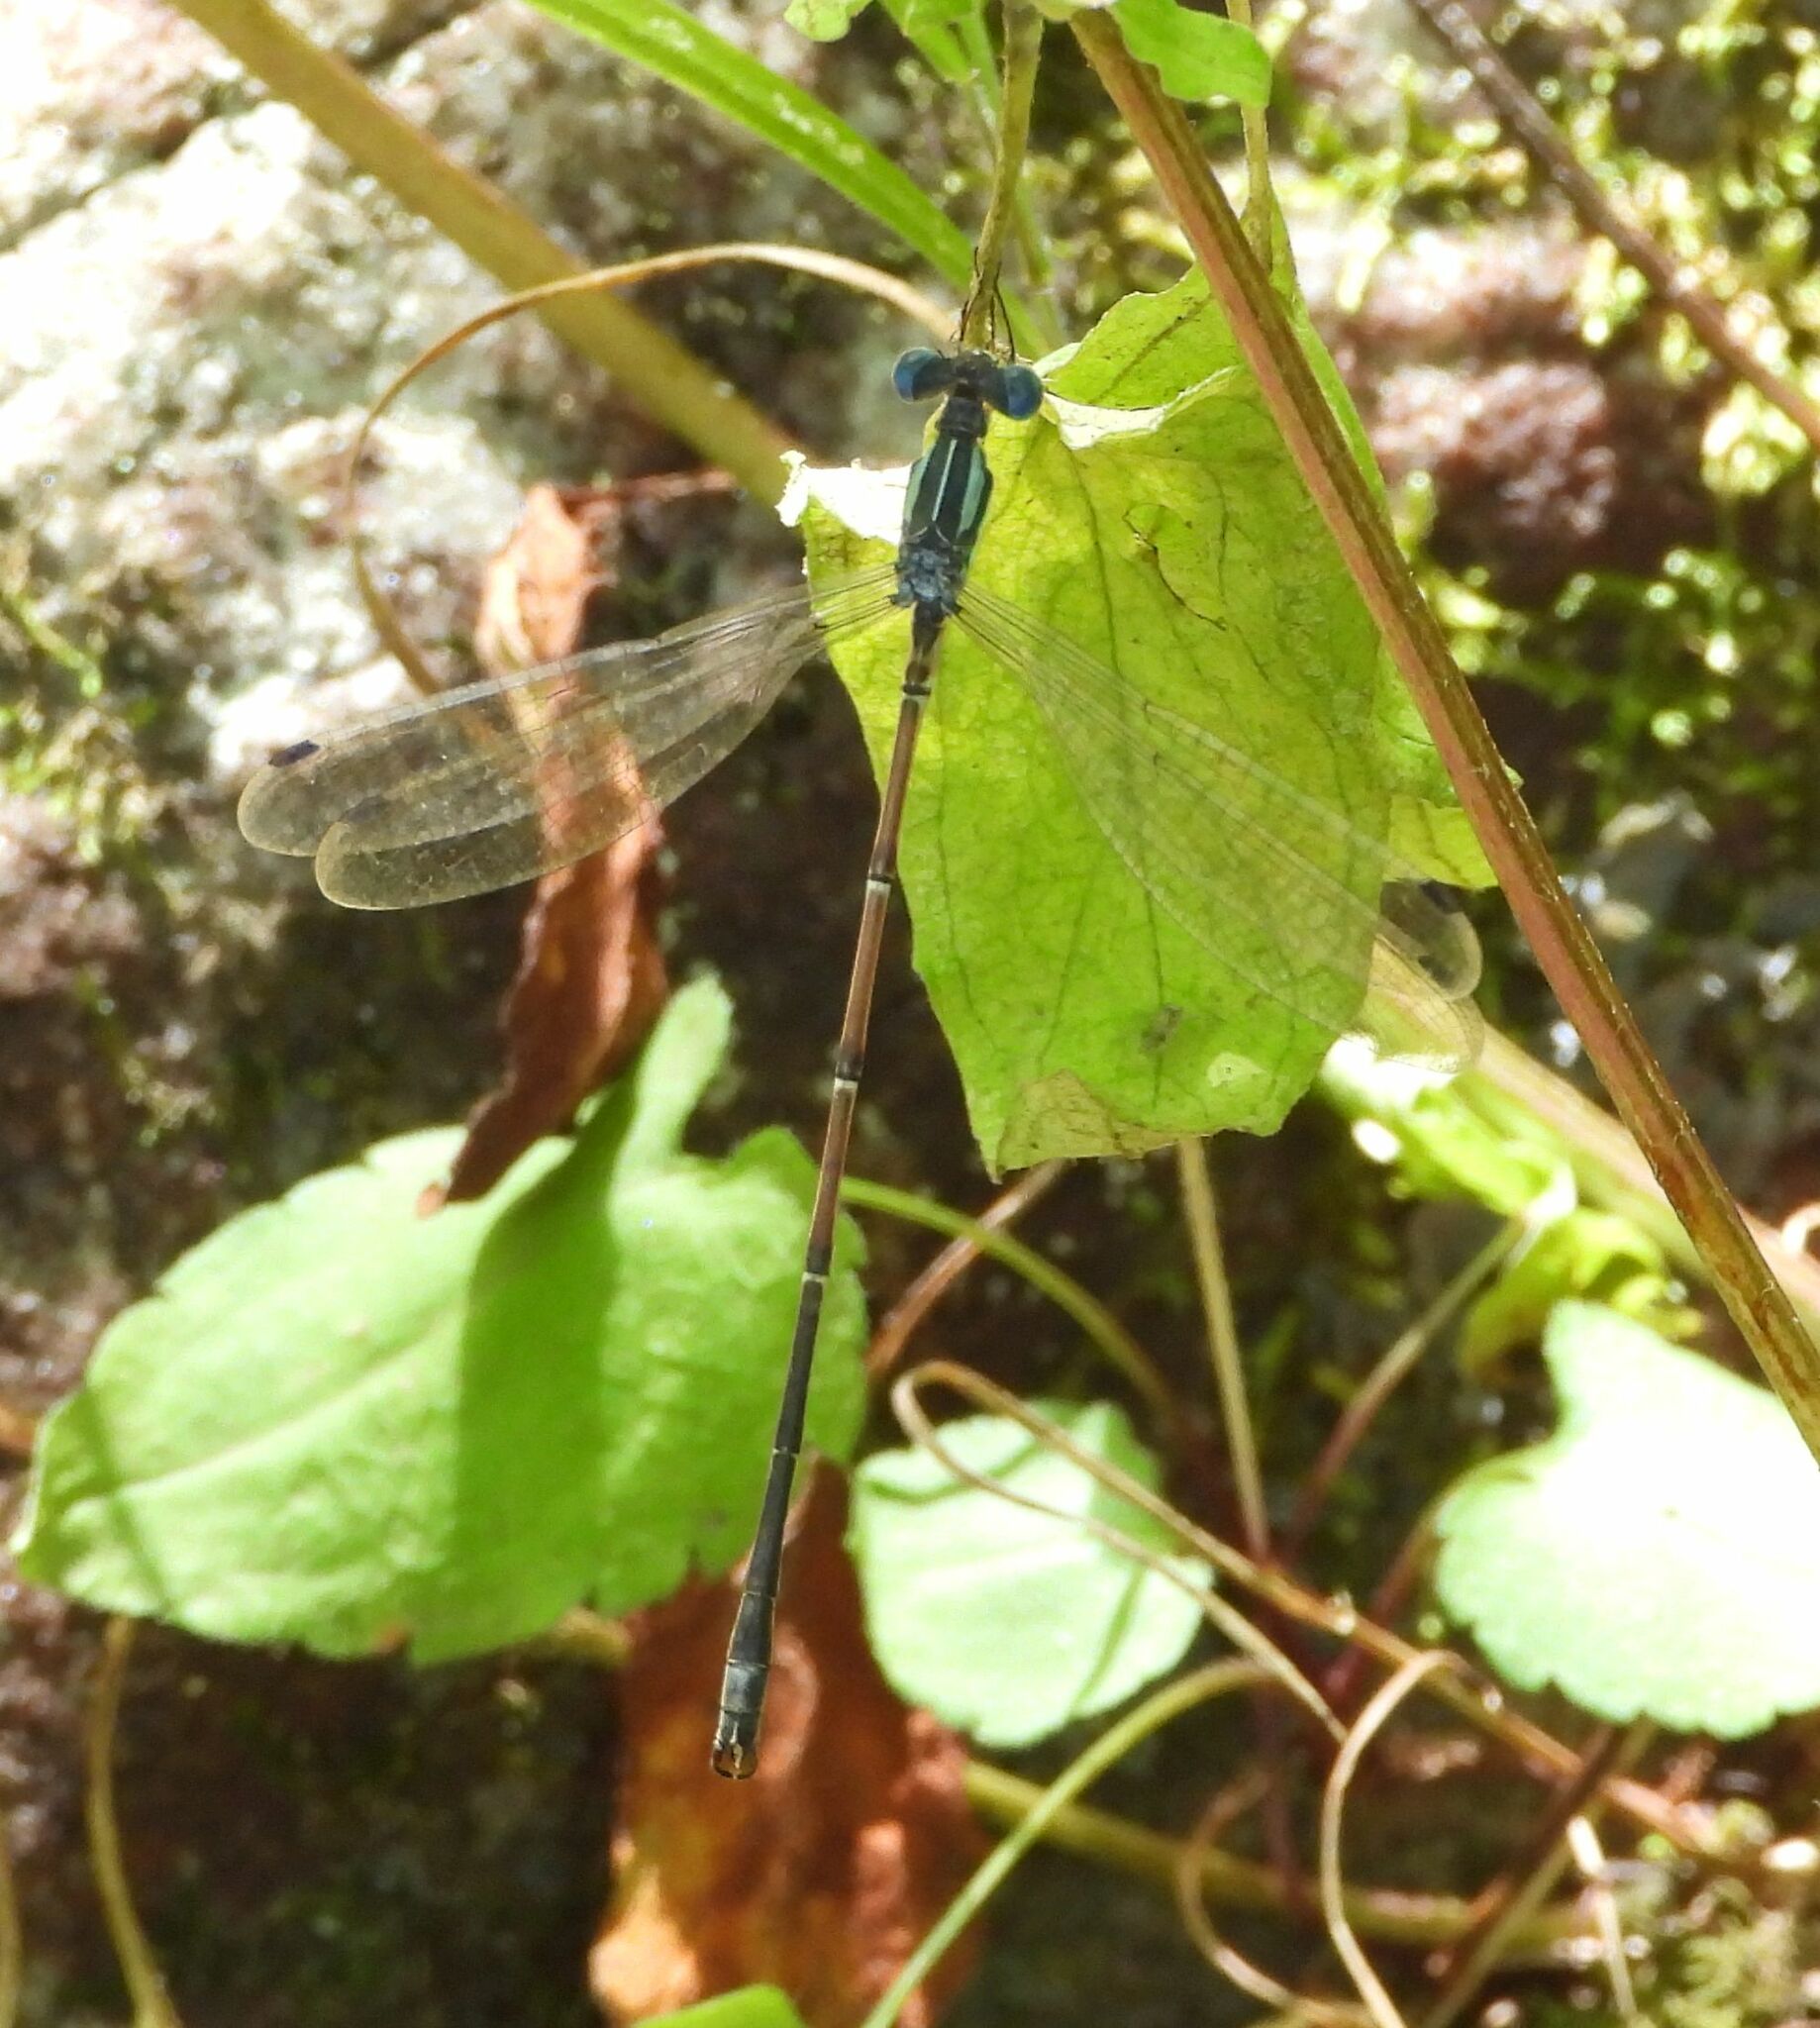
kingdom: Animalia
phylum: Arthropoda
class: Insecta
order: Odonata
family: Lestidae
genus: Lestes
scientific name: Lestes rectangularis
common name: Slender spreadwing
